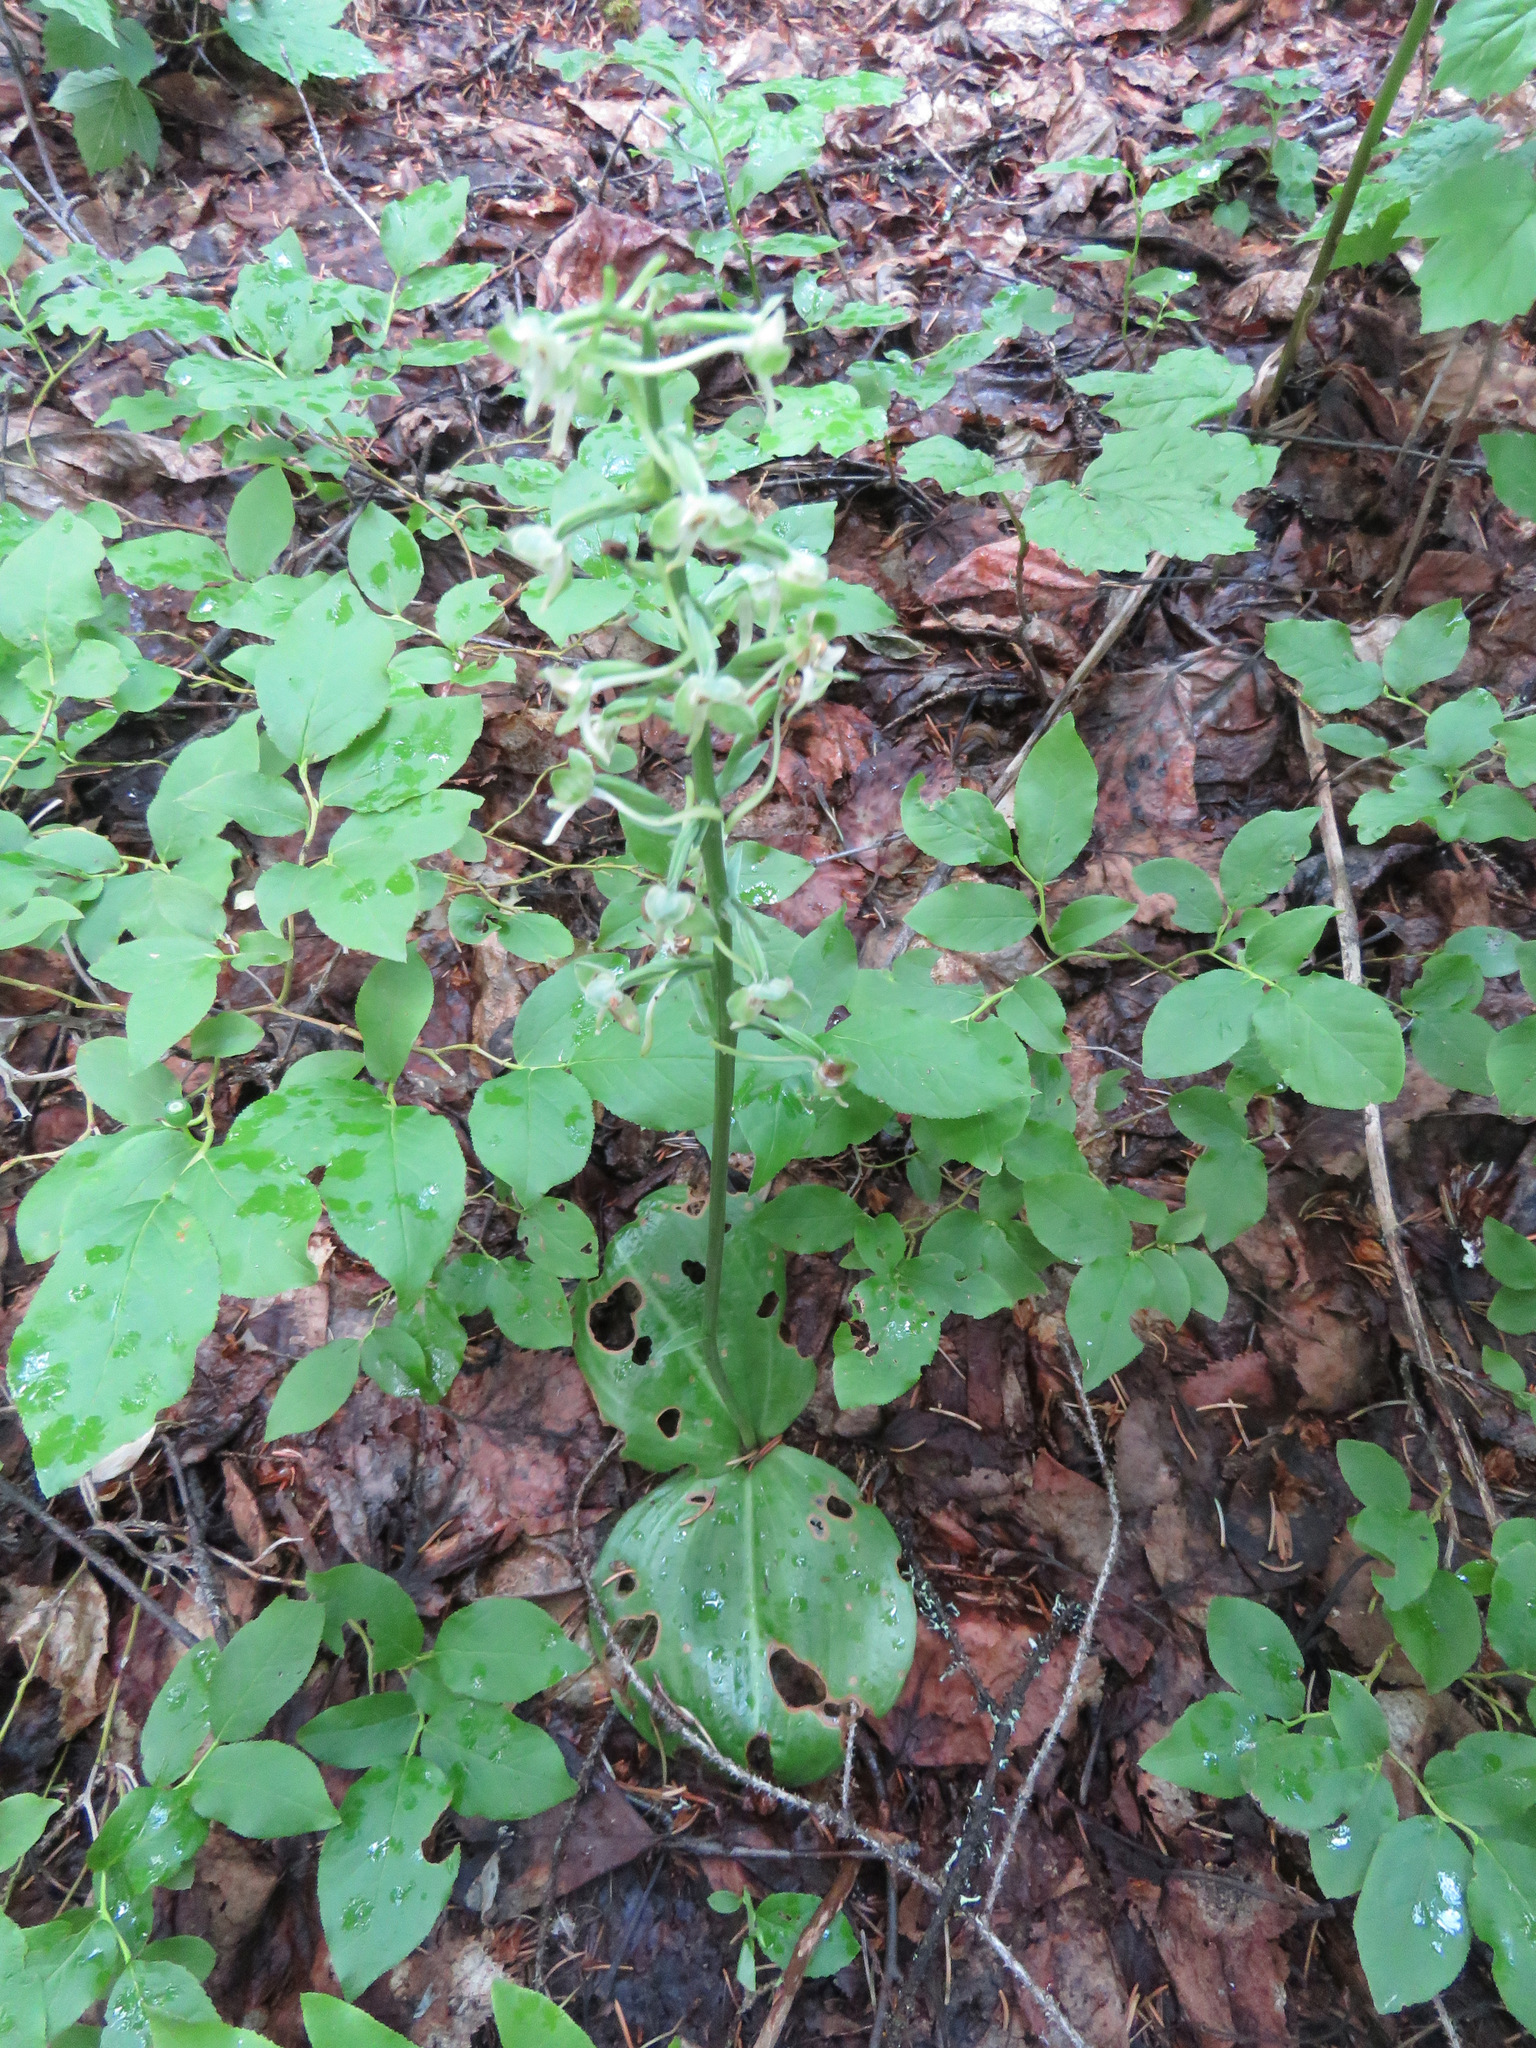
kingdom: Plantae
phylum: Tracheophyta
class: Liliopsida
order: Asparagales
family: Orchidaceae
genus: Platanthera
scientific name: Platanthera orbiculata
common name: Large round-leaved orchid
